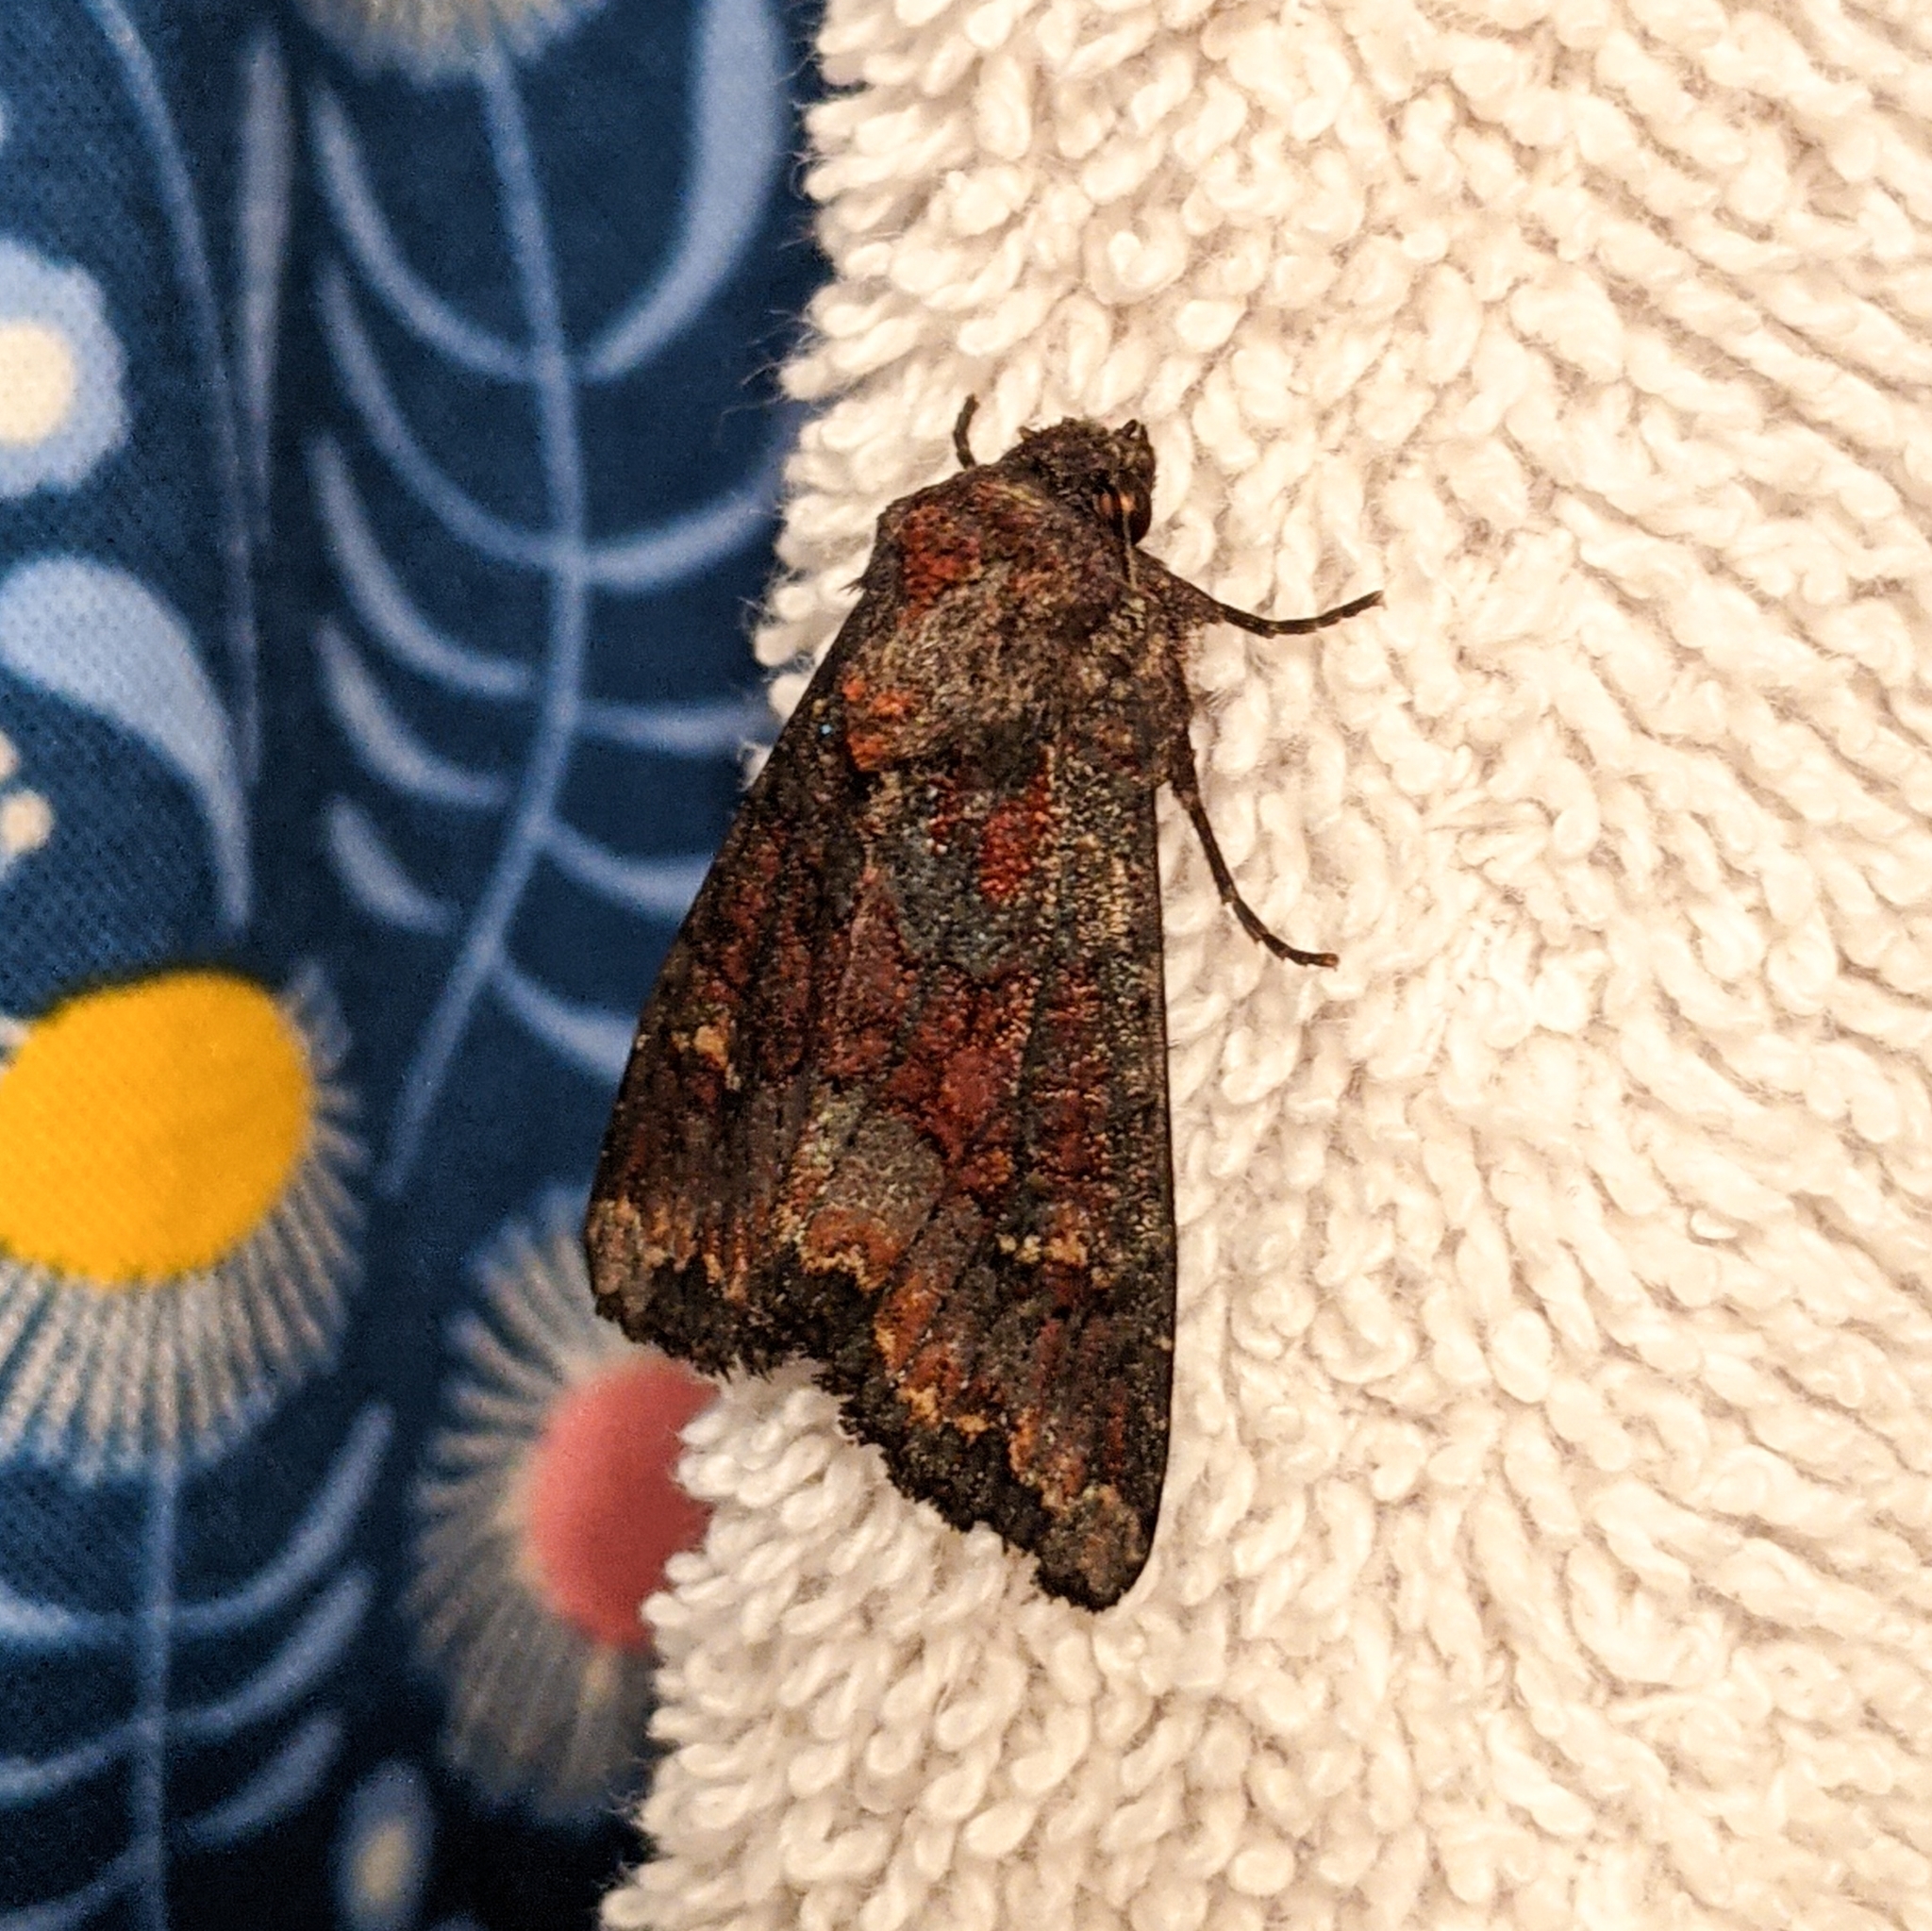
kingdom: Animalia
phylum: Arthropoda
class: Insecta
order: Lepidoptera
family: Noctuidae
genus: Apamea
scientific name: Apamea amputatrix
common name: Yellow-headed cutworm moth
